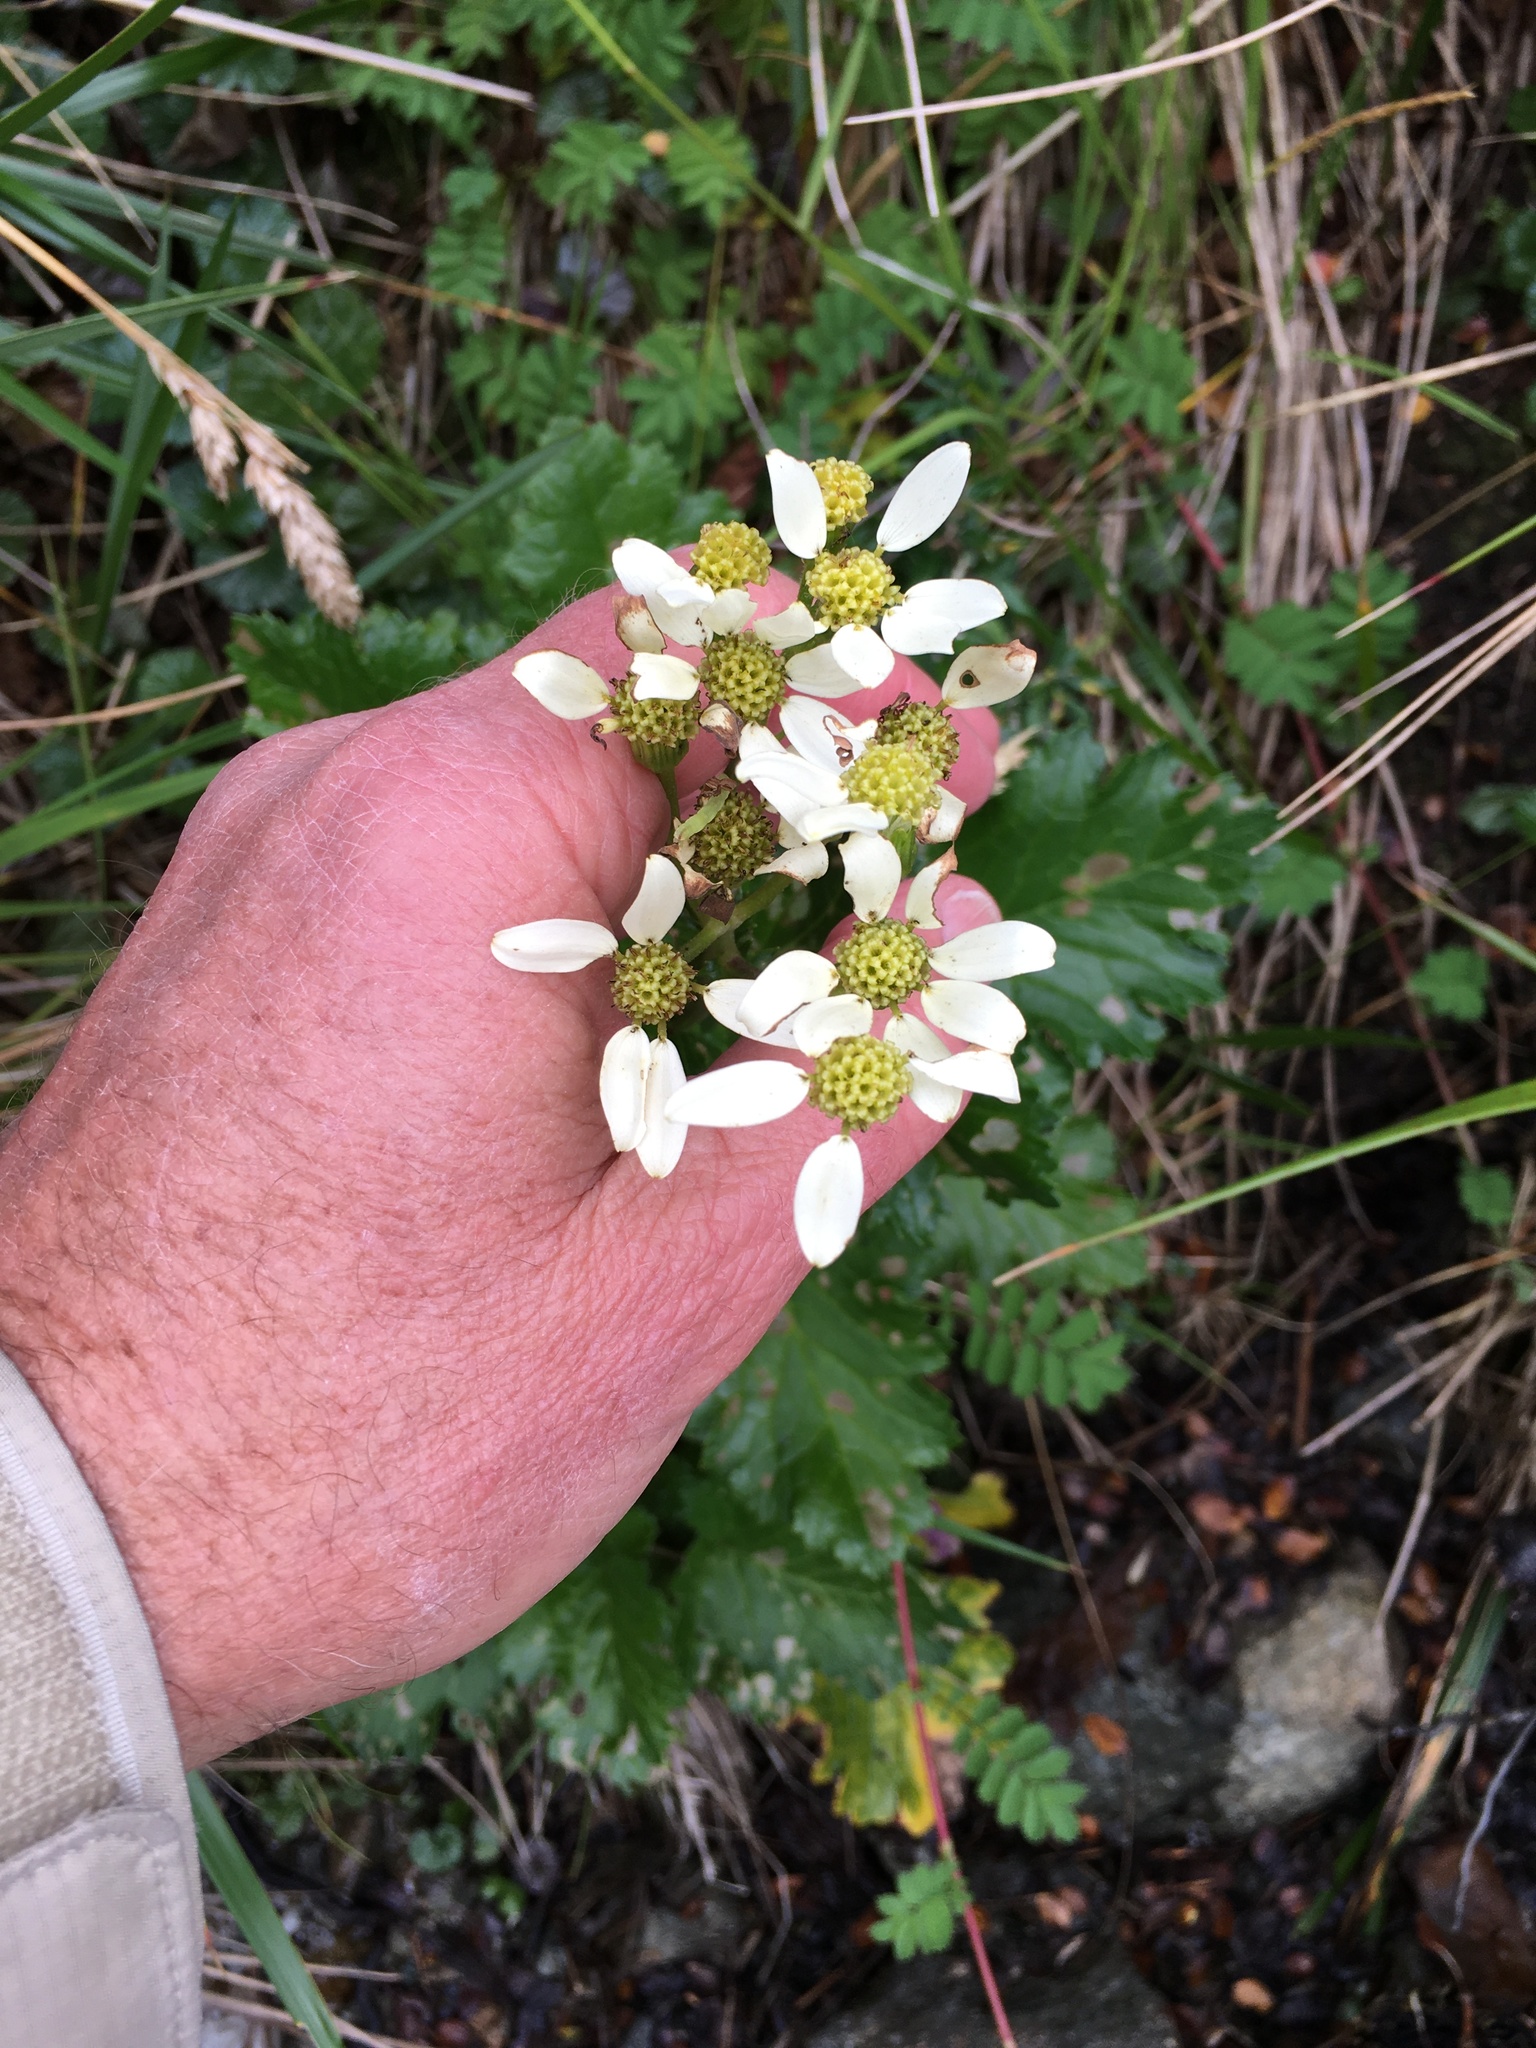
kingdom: Plantae
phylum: Tracheophyta
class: Magnoliopsida
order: Asterales
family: Asteraceae
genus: Iocenes
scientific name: Iocenes virens
